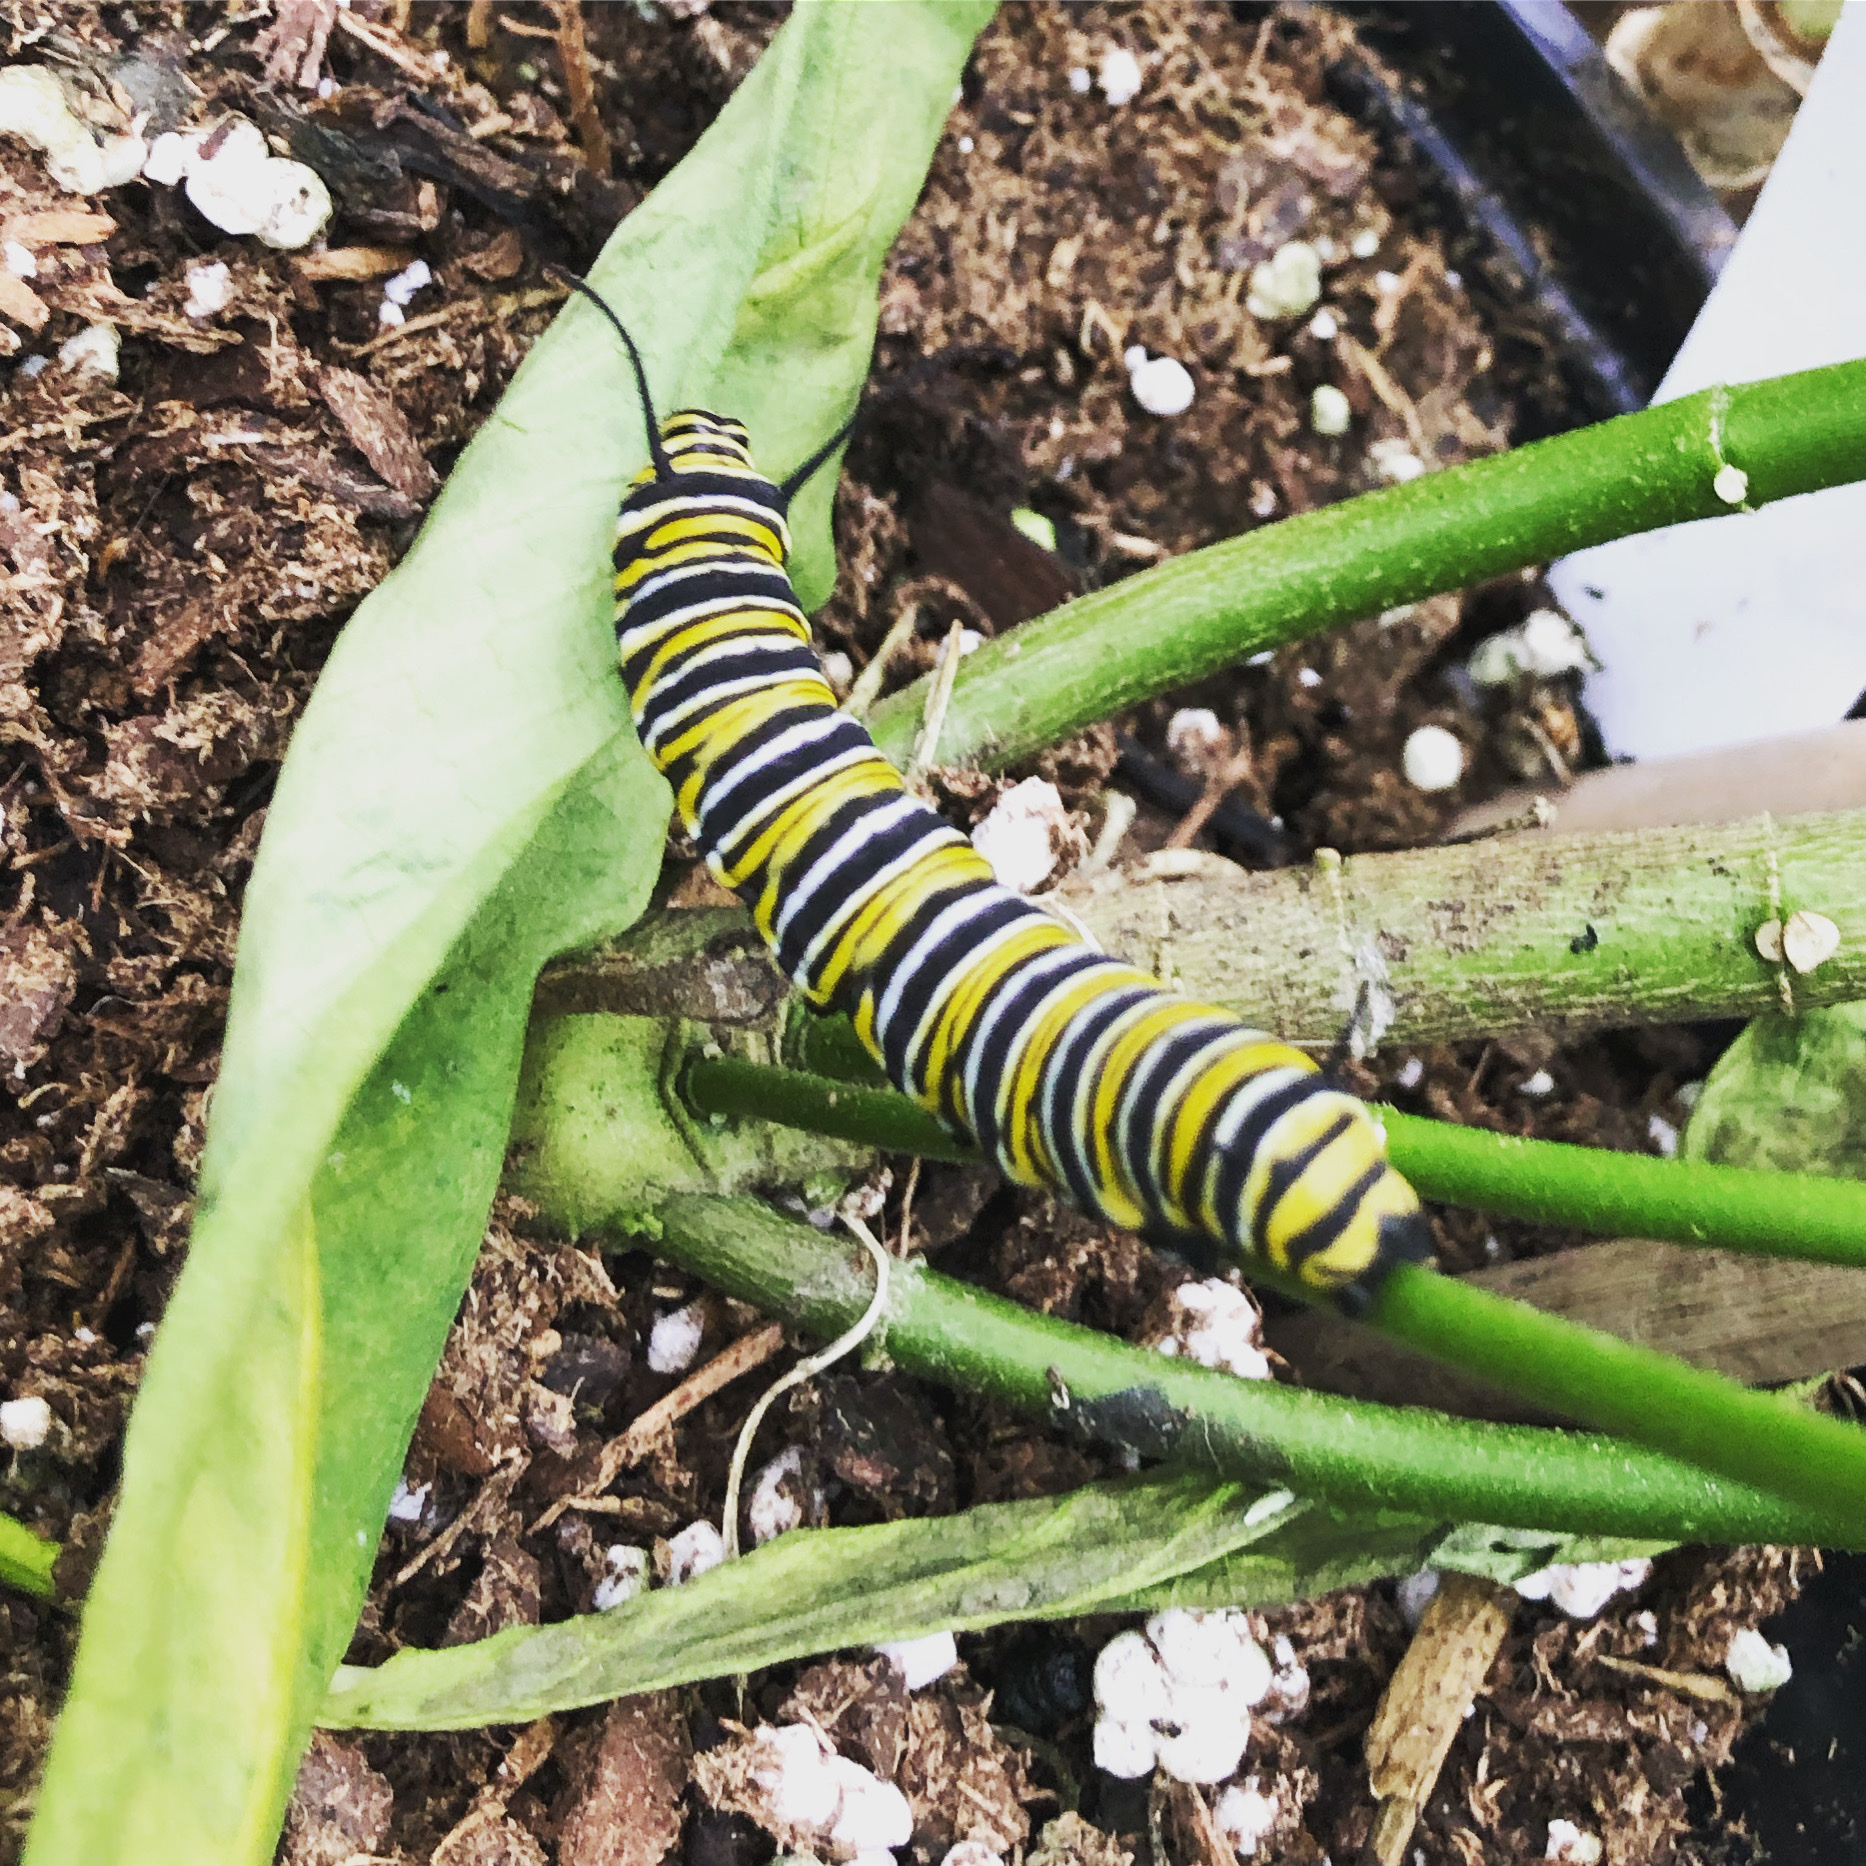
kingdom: Animalia
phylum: Arthropoda
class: Insecta
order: Lepidoptera
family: Nymphalidae
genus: Danaus
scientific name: Danaus plexippus
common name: Monarch
